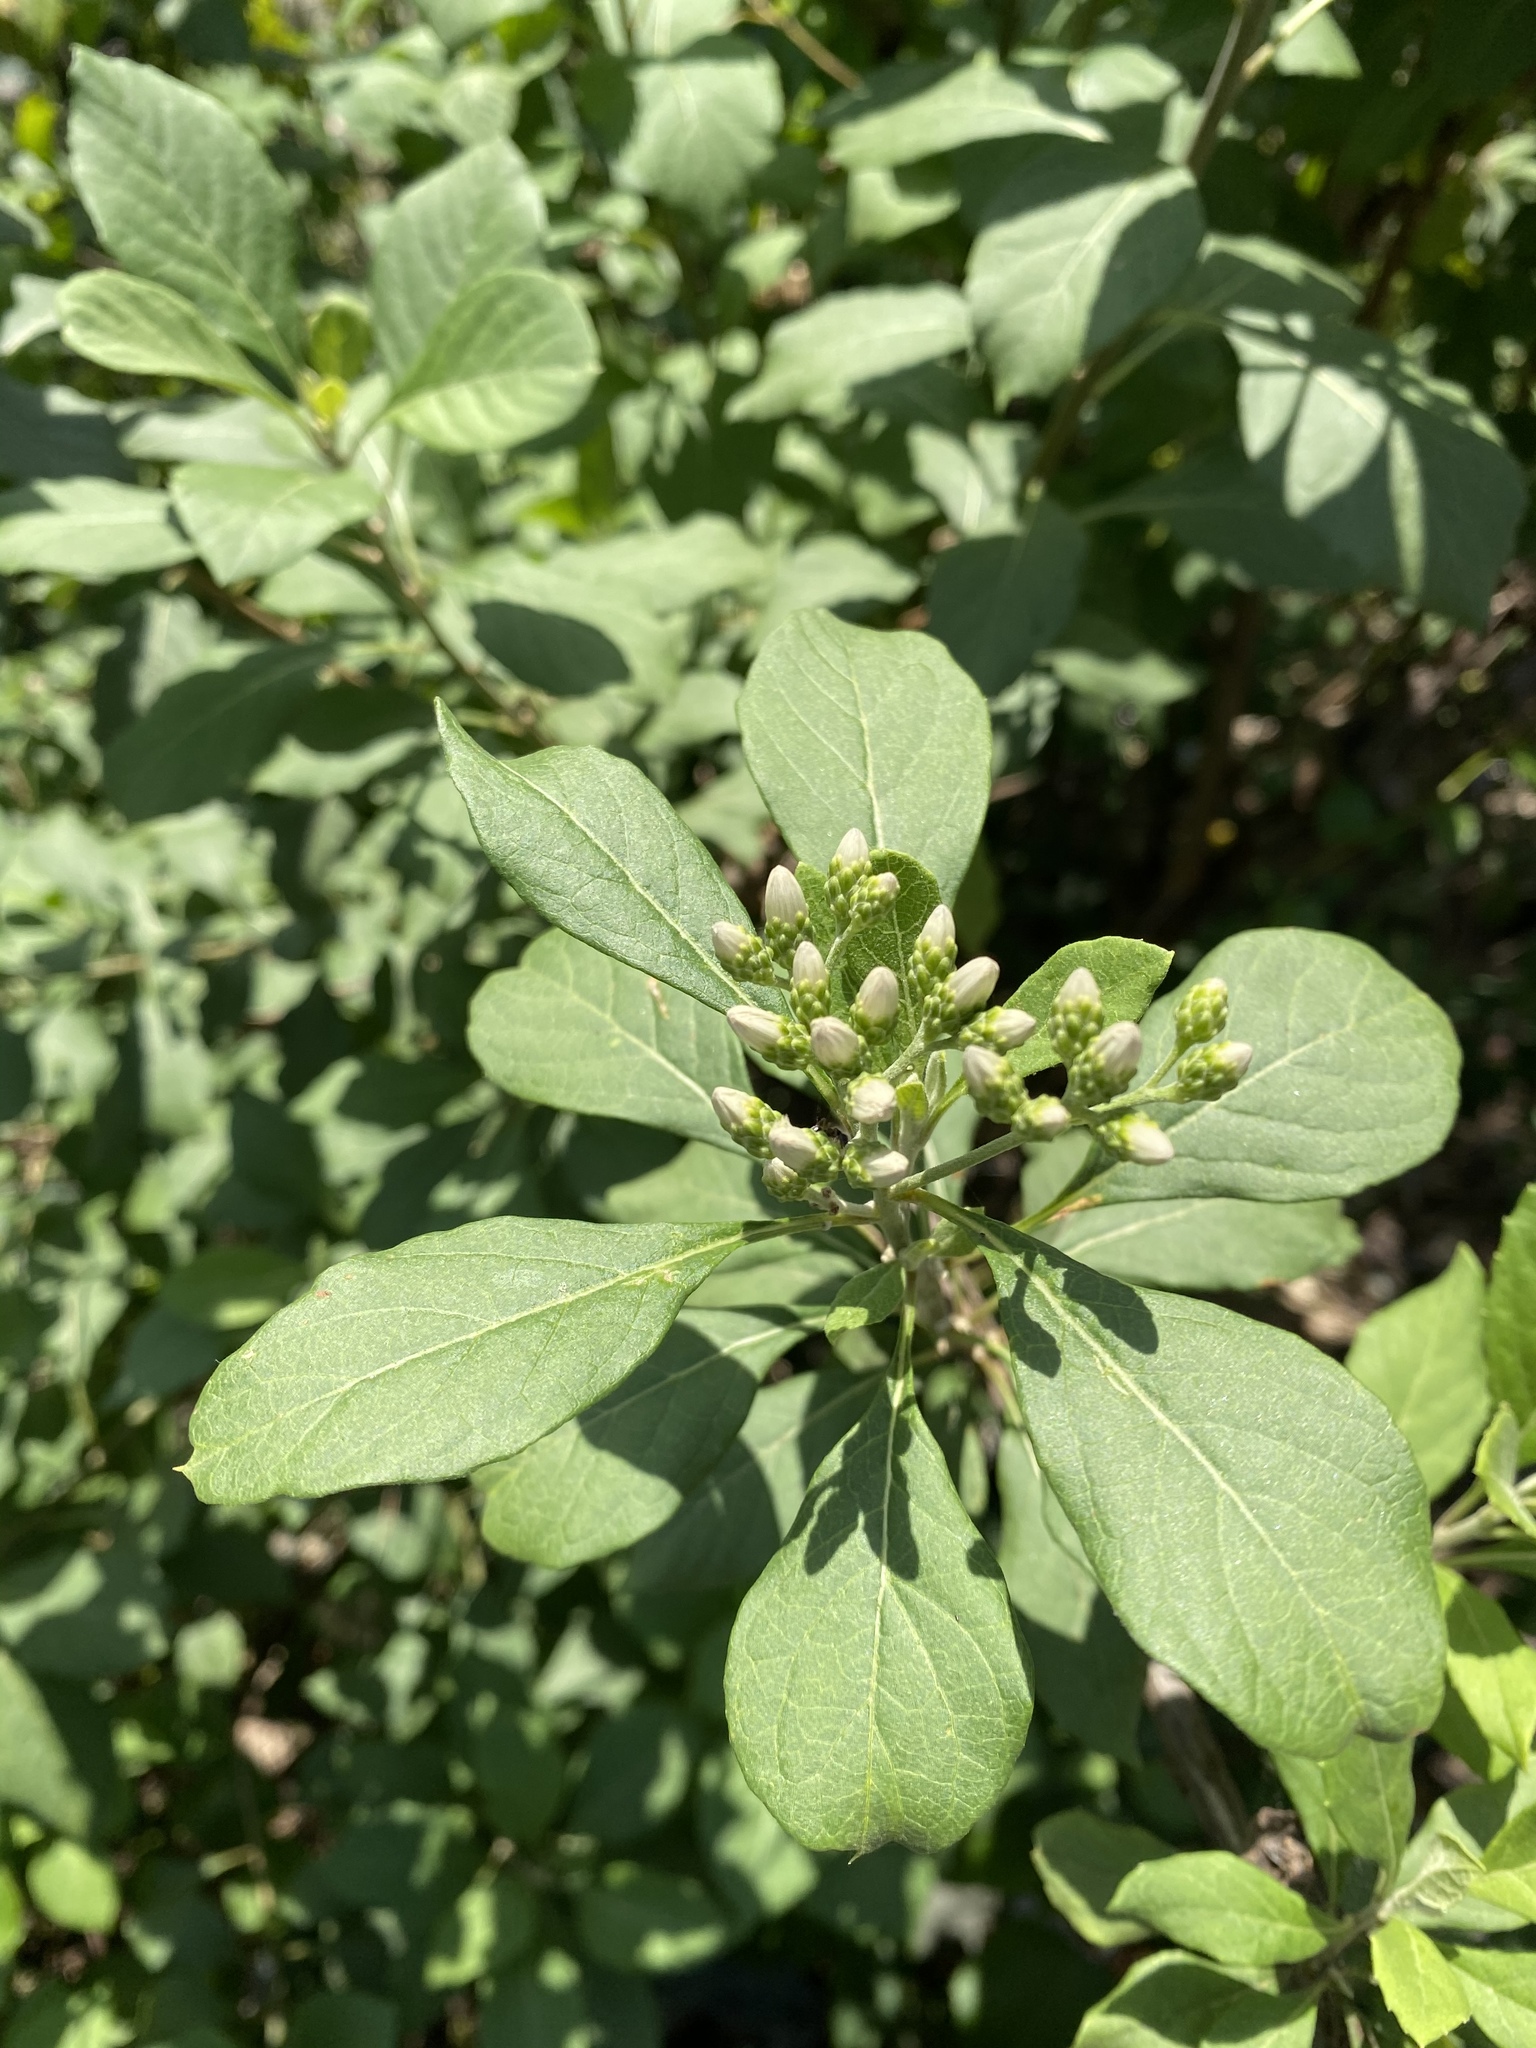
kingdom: Plantae
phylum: Tracheophyta
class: Magnoliopsida
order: Asterales
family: Asteraceae
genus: Gymnanthemum
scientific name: Gymnanthemum amygdalinum
